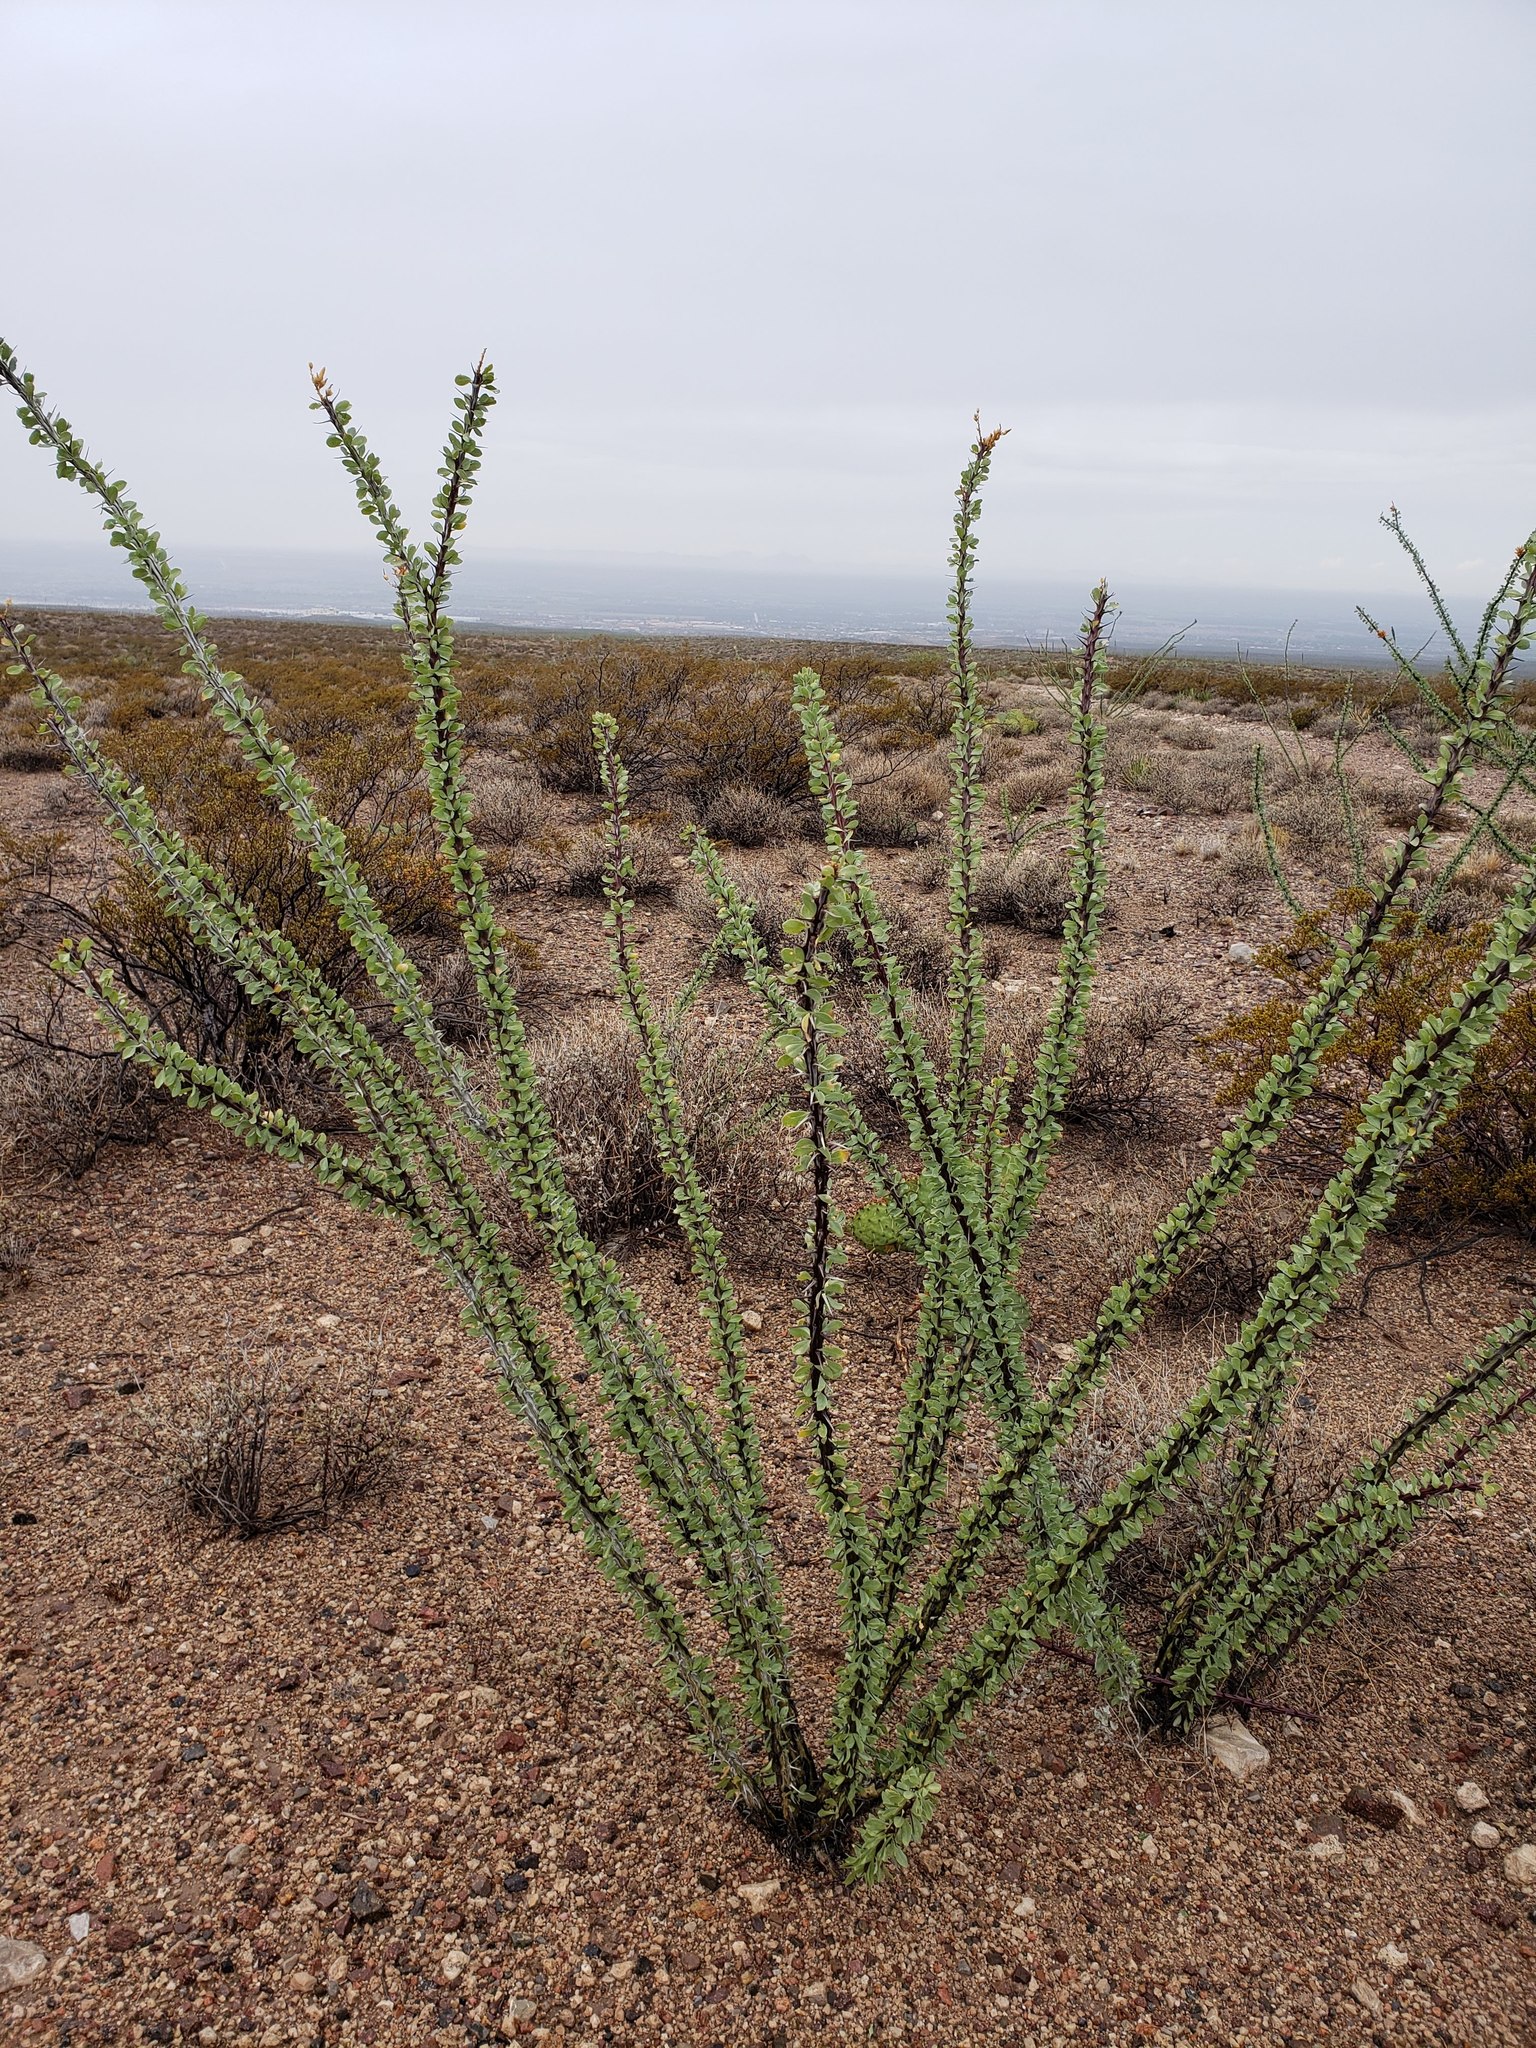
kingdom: Plantae
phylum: Tracheophyta
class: Magnoliopsida
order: Ericales
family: Fouquieriaceae
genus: Fouquieria
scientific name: Fouquieria splendens
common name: Vine-cactus
